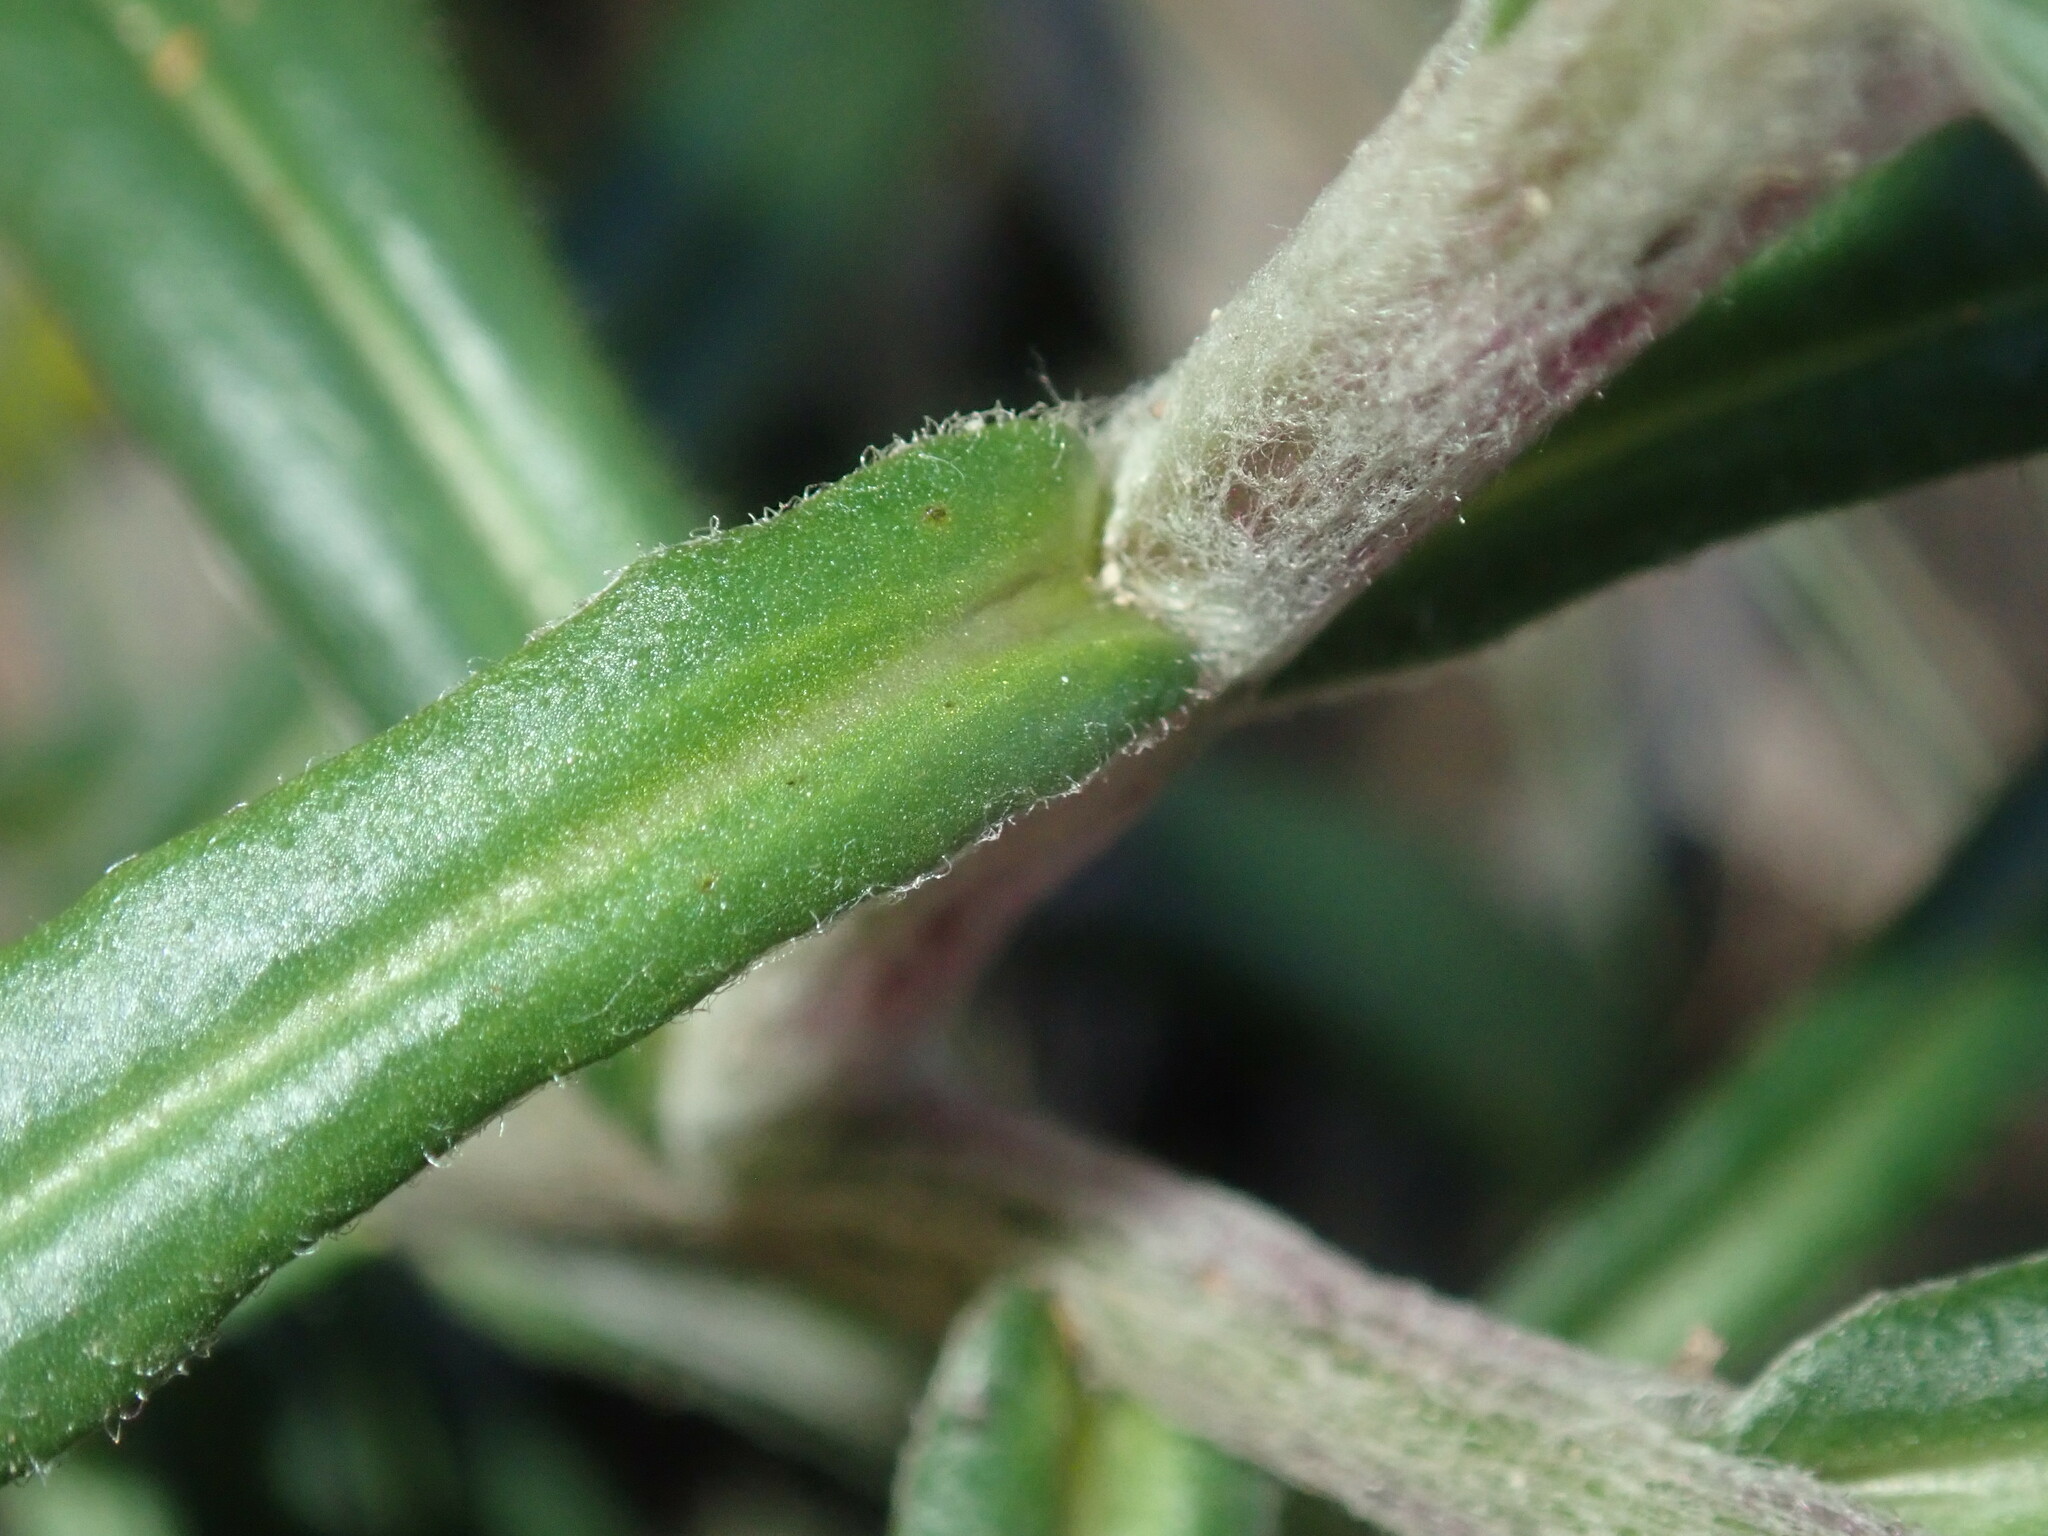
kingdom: Plantae
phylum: Tracheophyta
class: Magnoliopsida
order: Asterales
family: Asteraceae
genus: Coronidium
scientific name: Coronidium oxylepis
